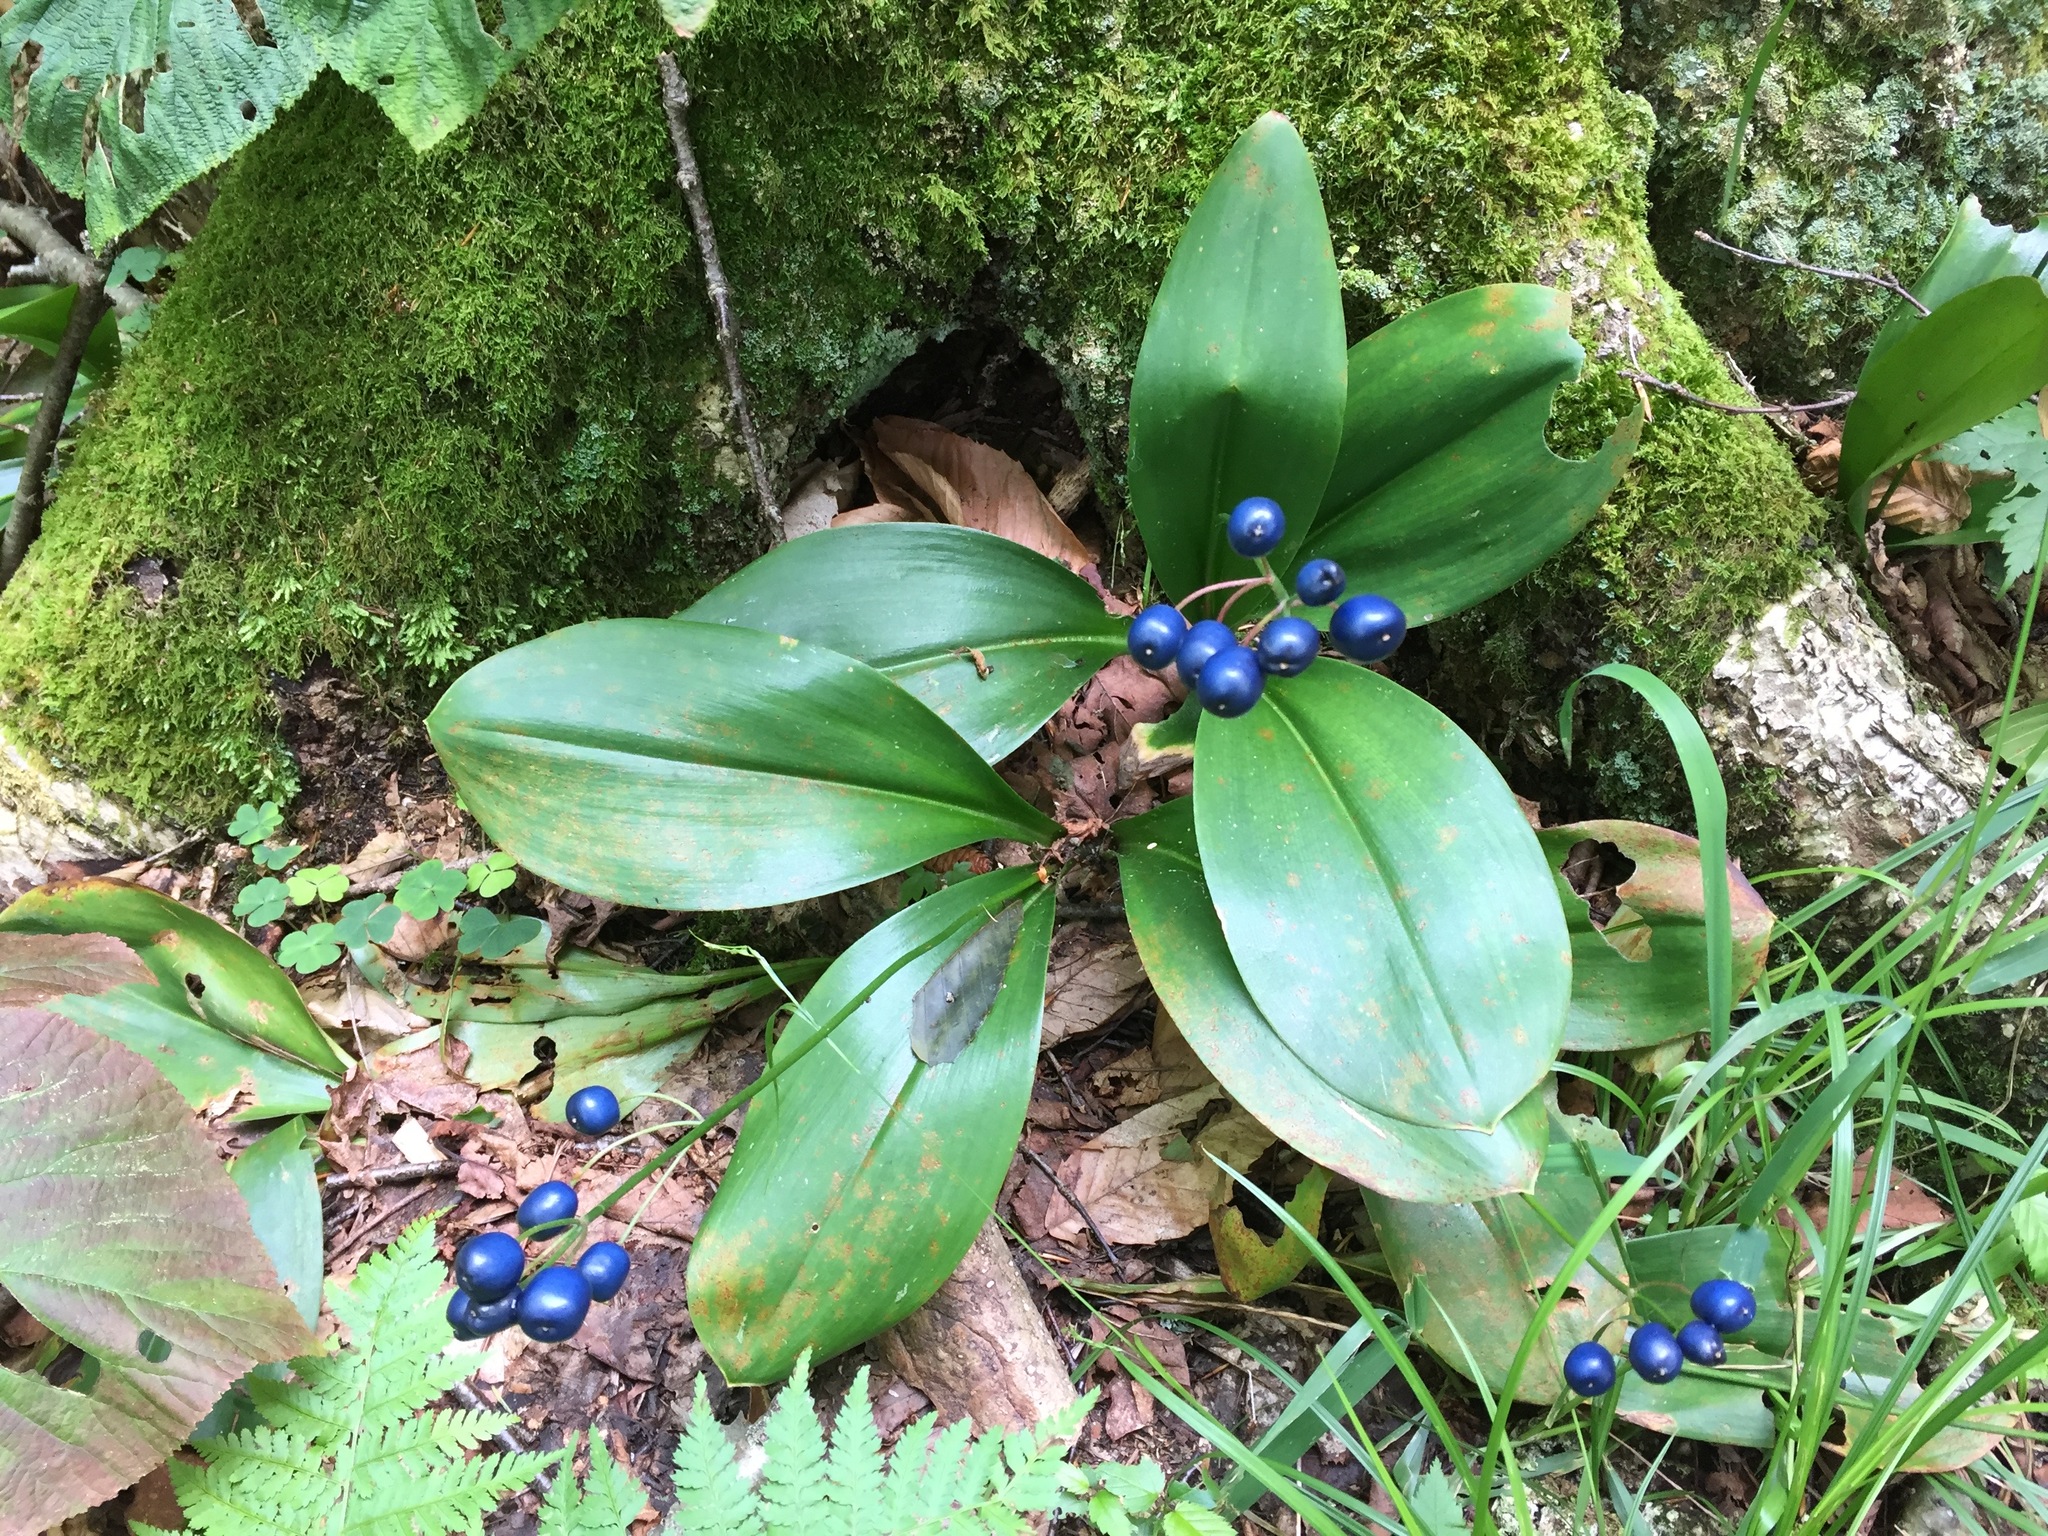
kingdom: Plantae
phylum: Tracheophyta
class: Liliopsida
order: Liliales
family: Liliaceae
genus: Clintonia
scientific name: Clintonia borealis
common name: Yellow clintonia
